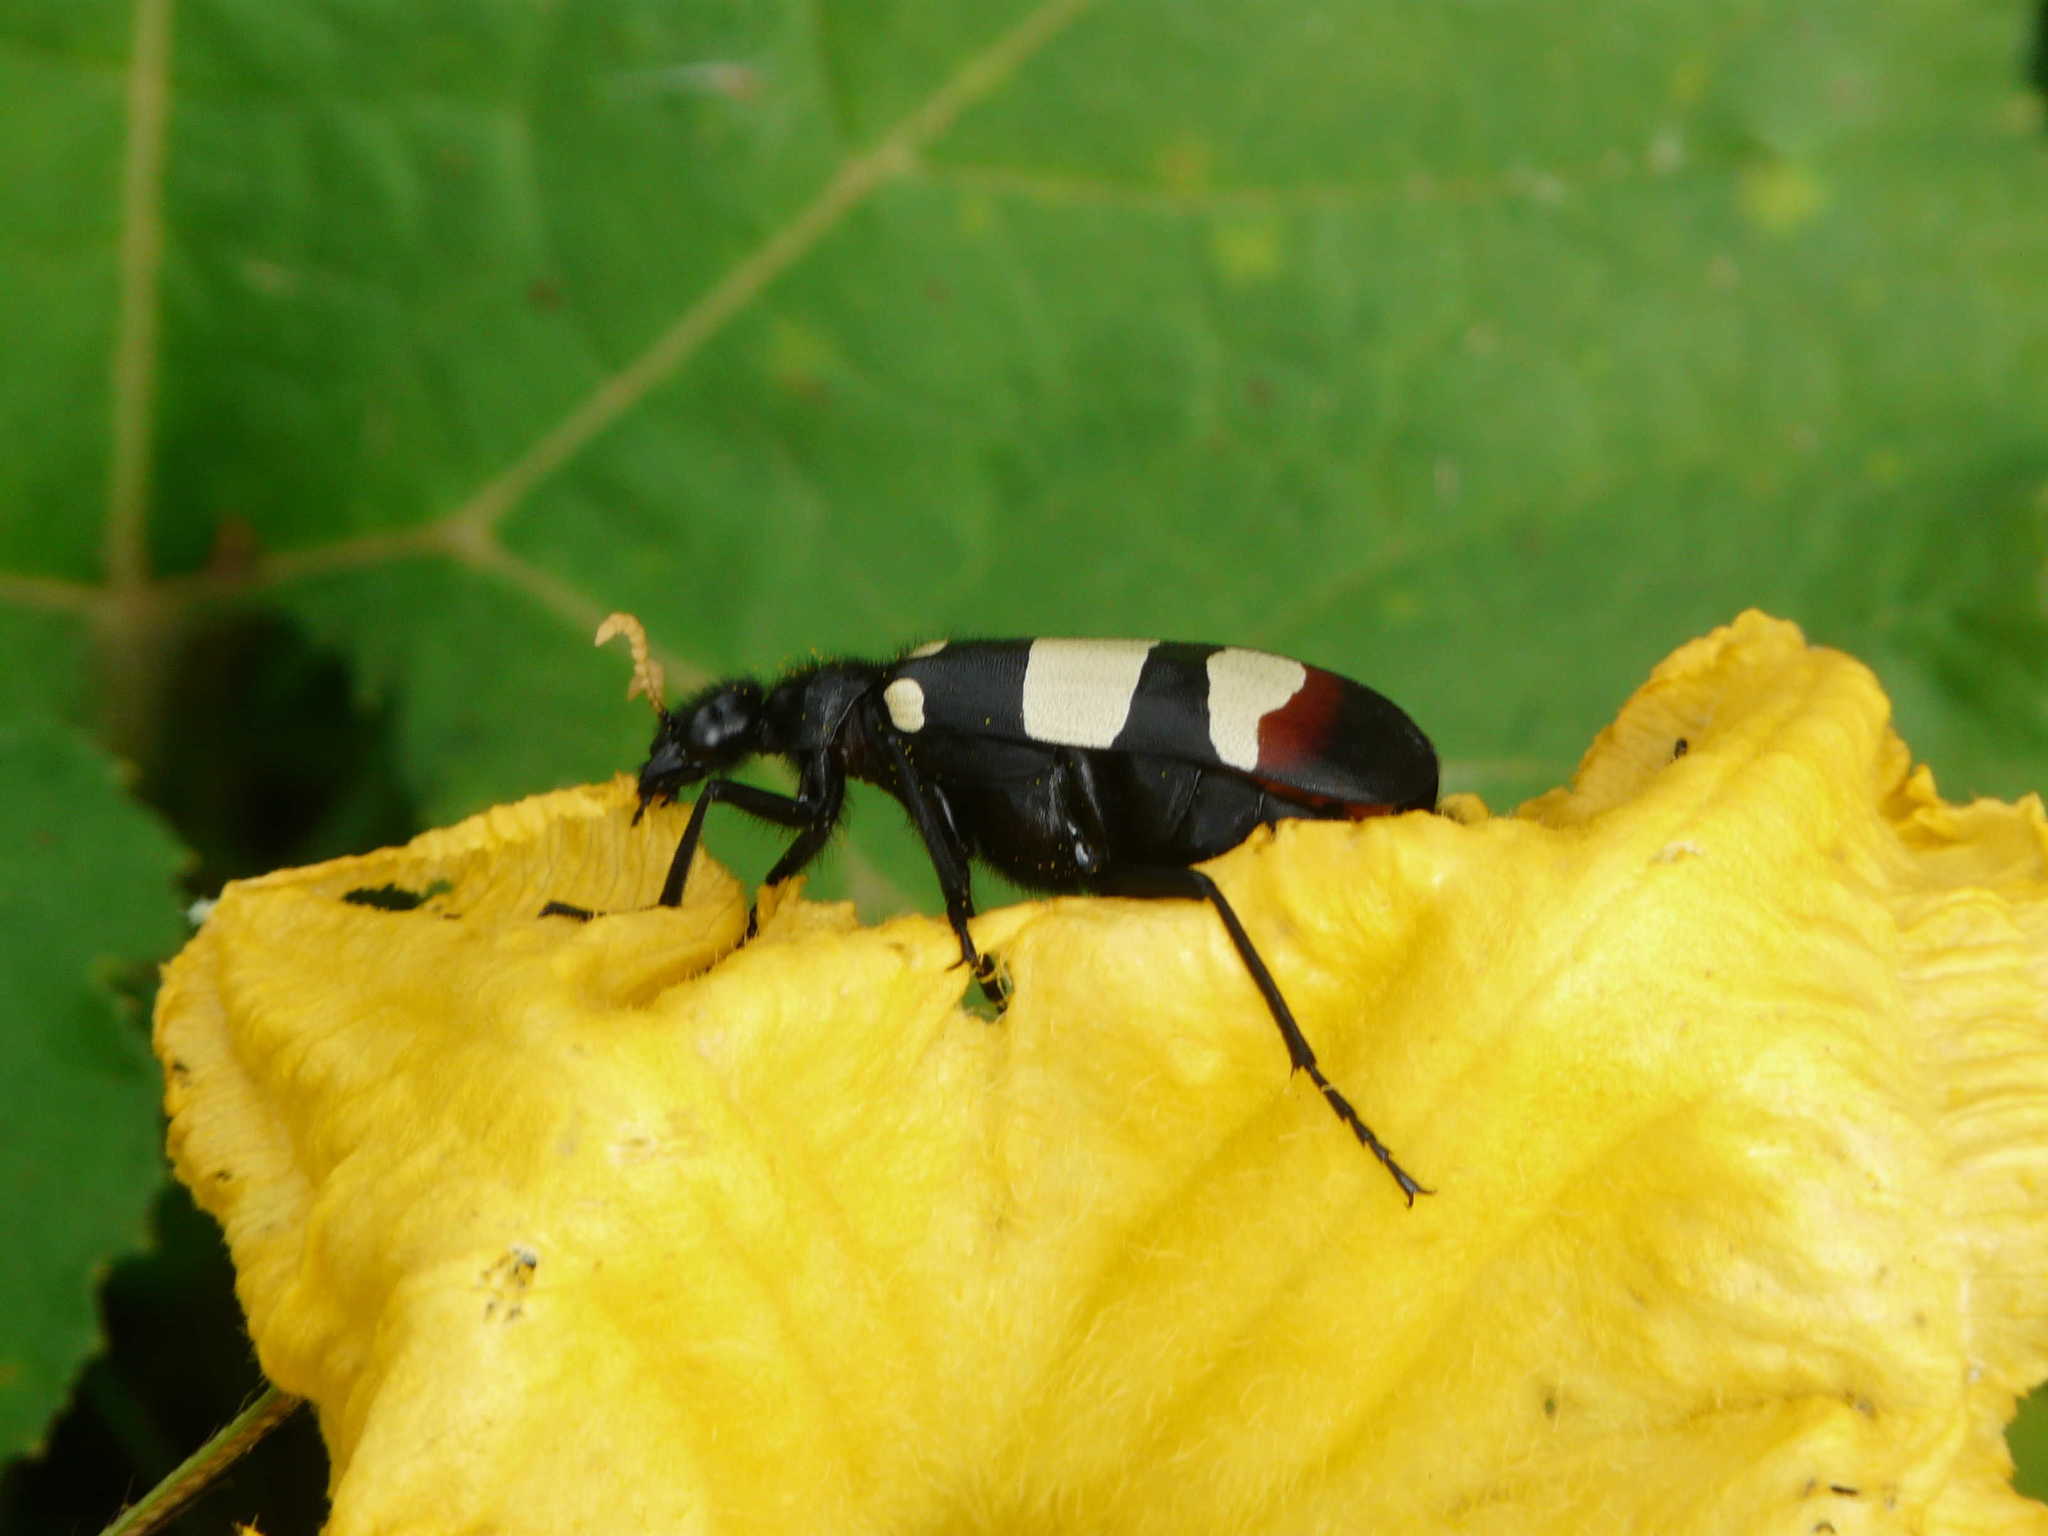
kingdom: Animalia
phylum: Arthropoda
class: Insecta
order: Coleoptera
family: Meloidae
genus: Hycleus
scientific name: Hycleus
